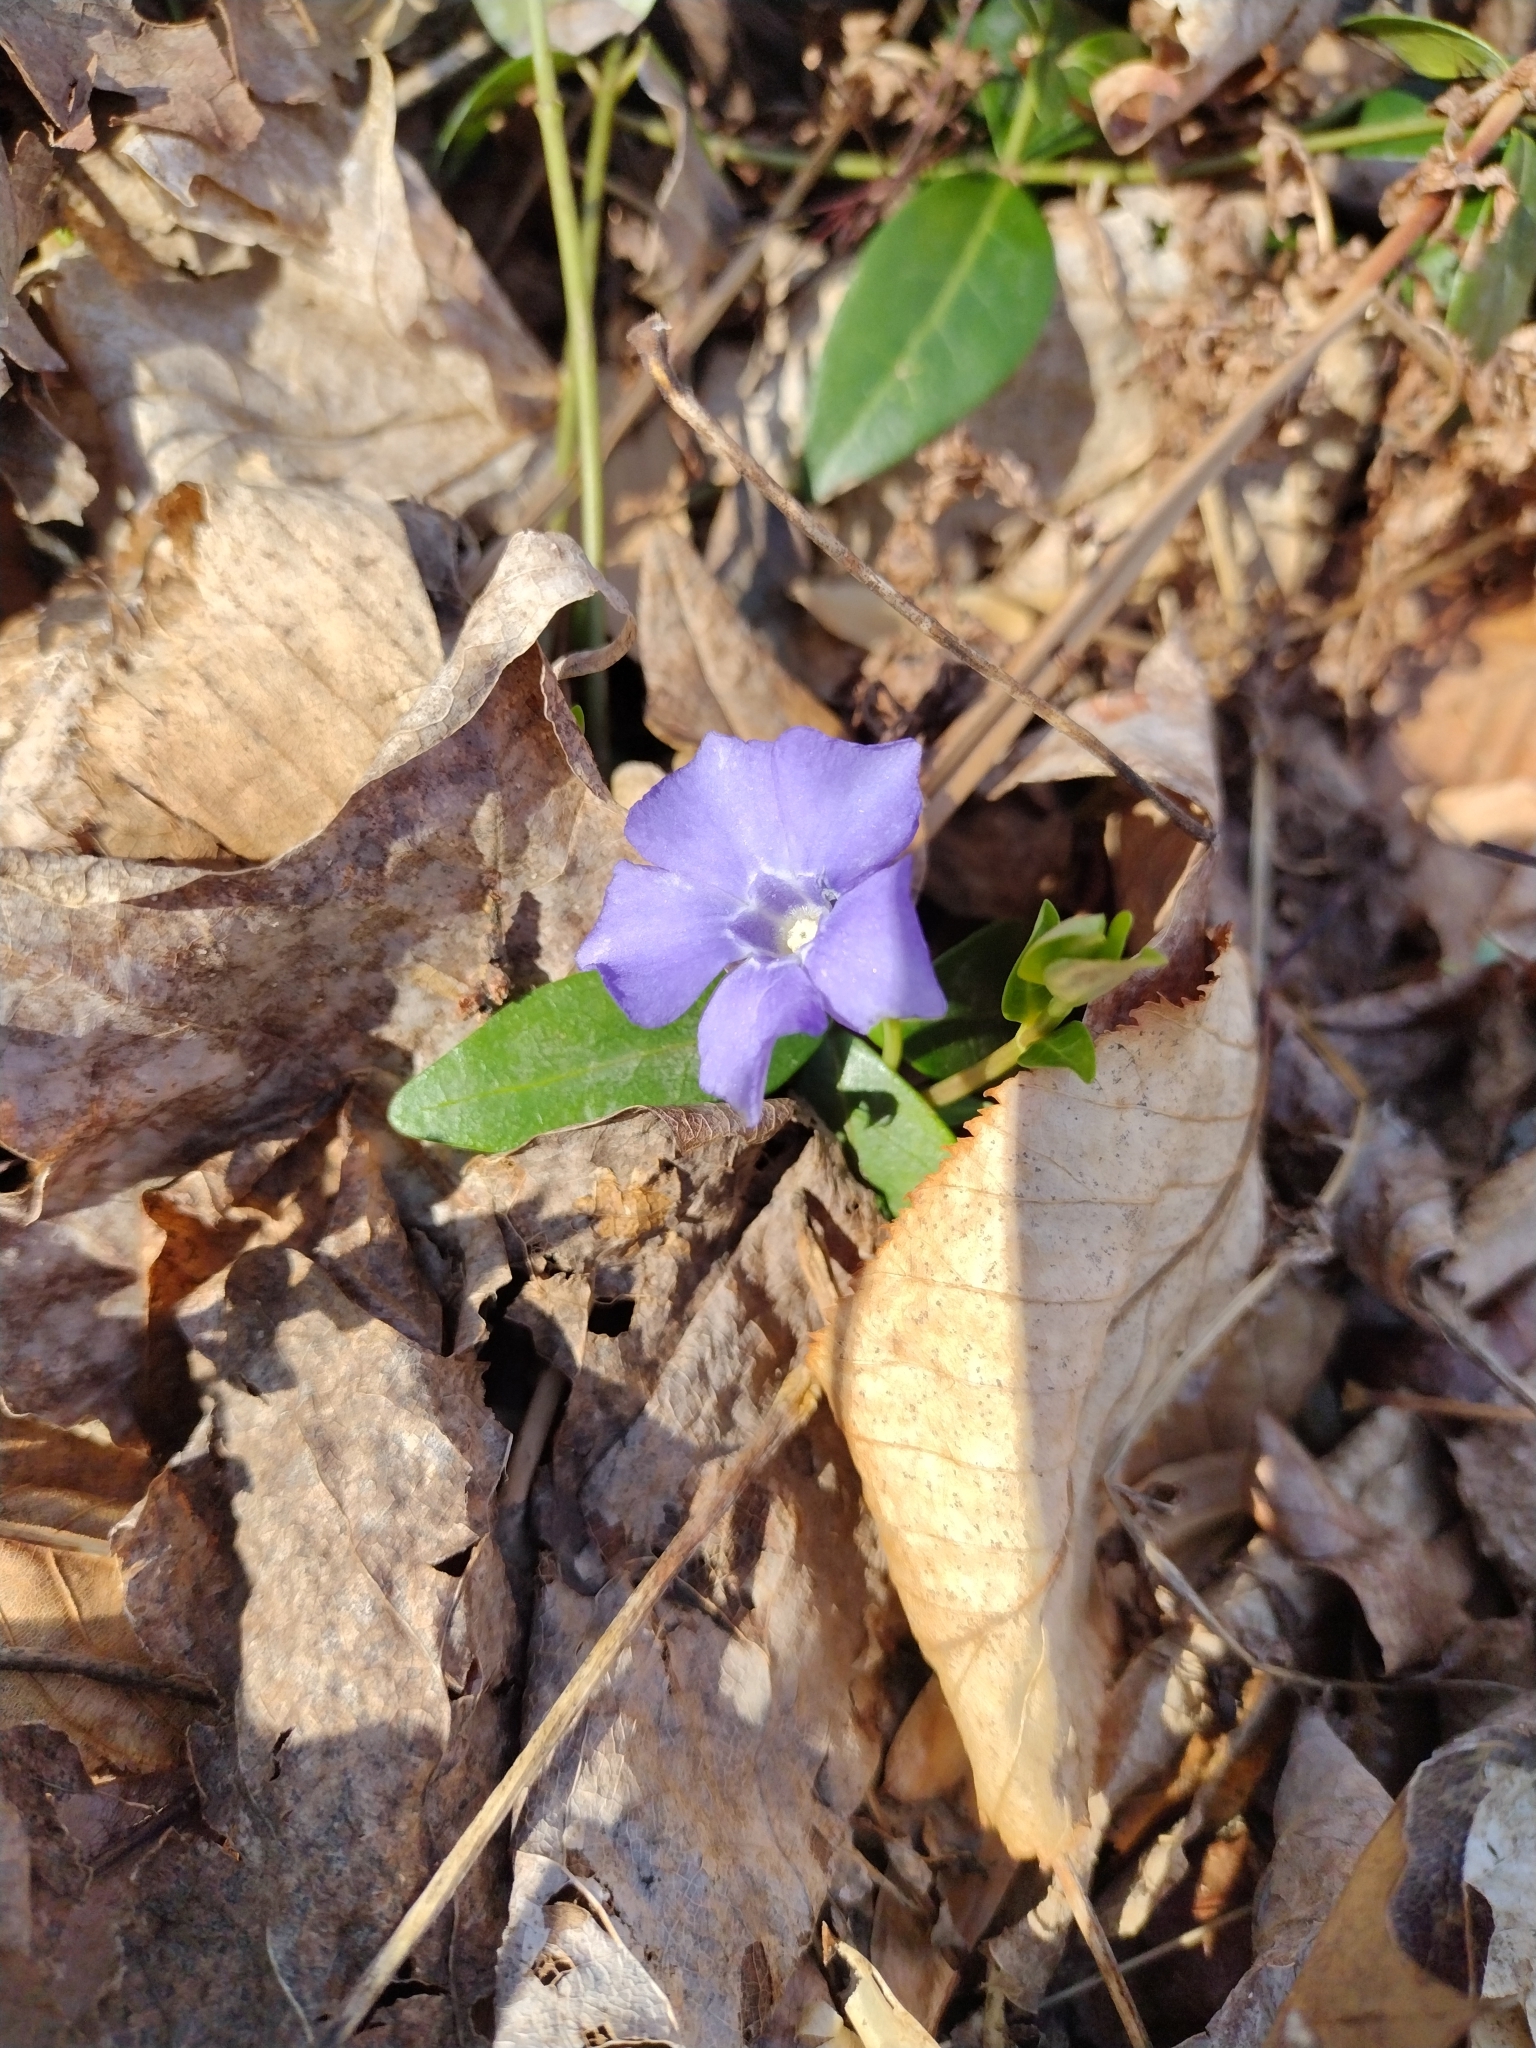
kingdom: Plantae
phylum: Tracheophyta
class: Magnoliopsida
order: Gentianales
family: Apocynaceae
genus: Vinca
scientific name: Vinca minor
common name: Lesser periwinkle
